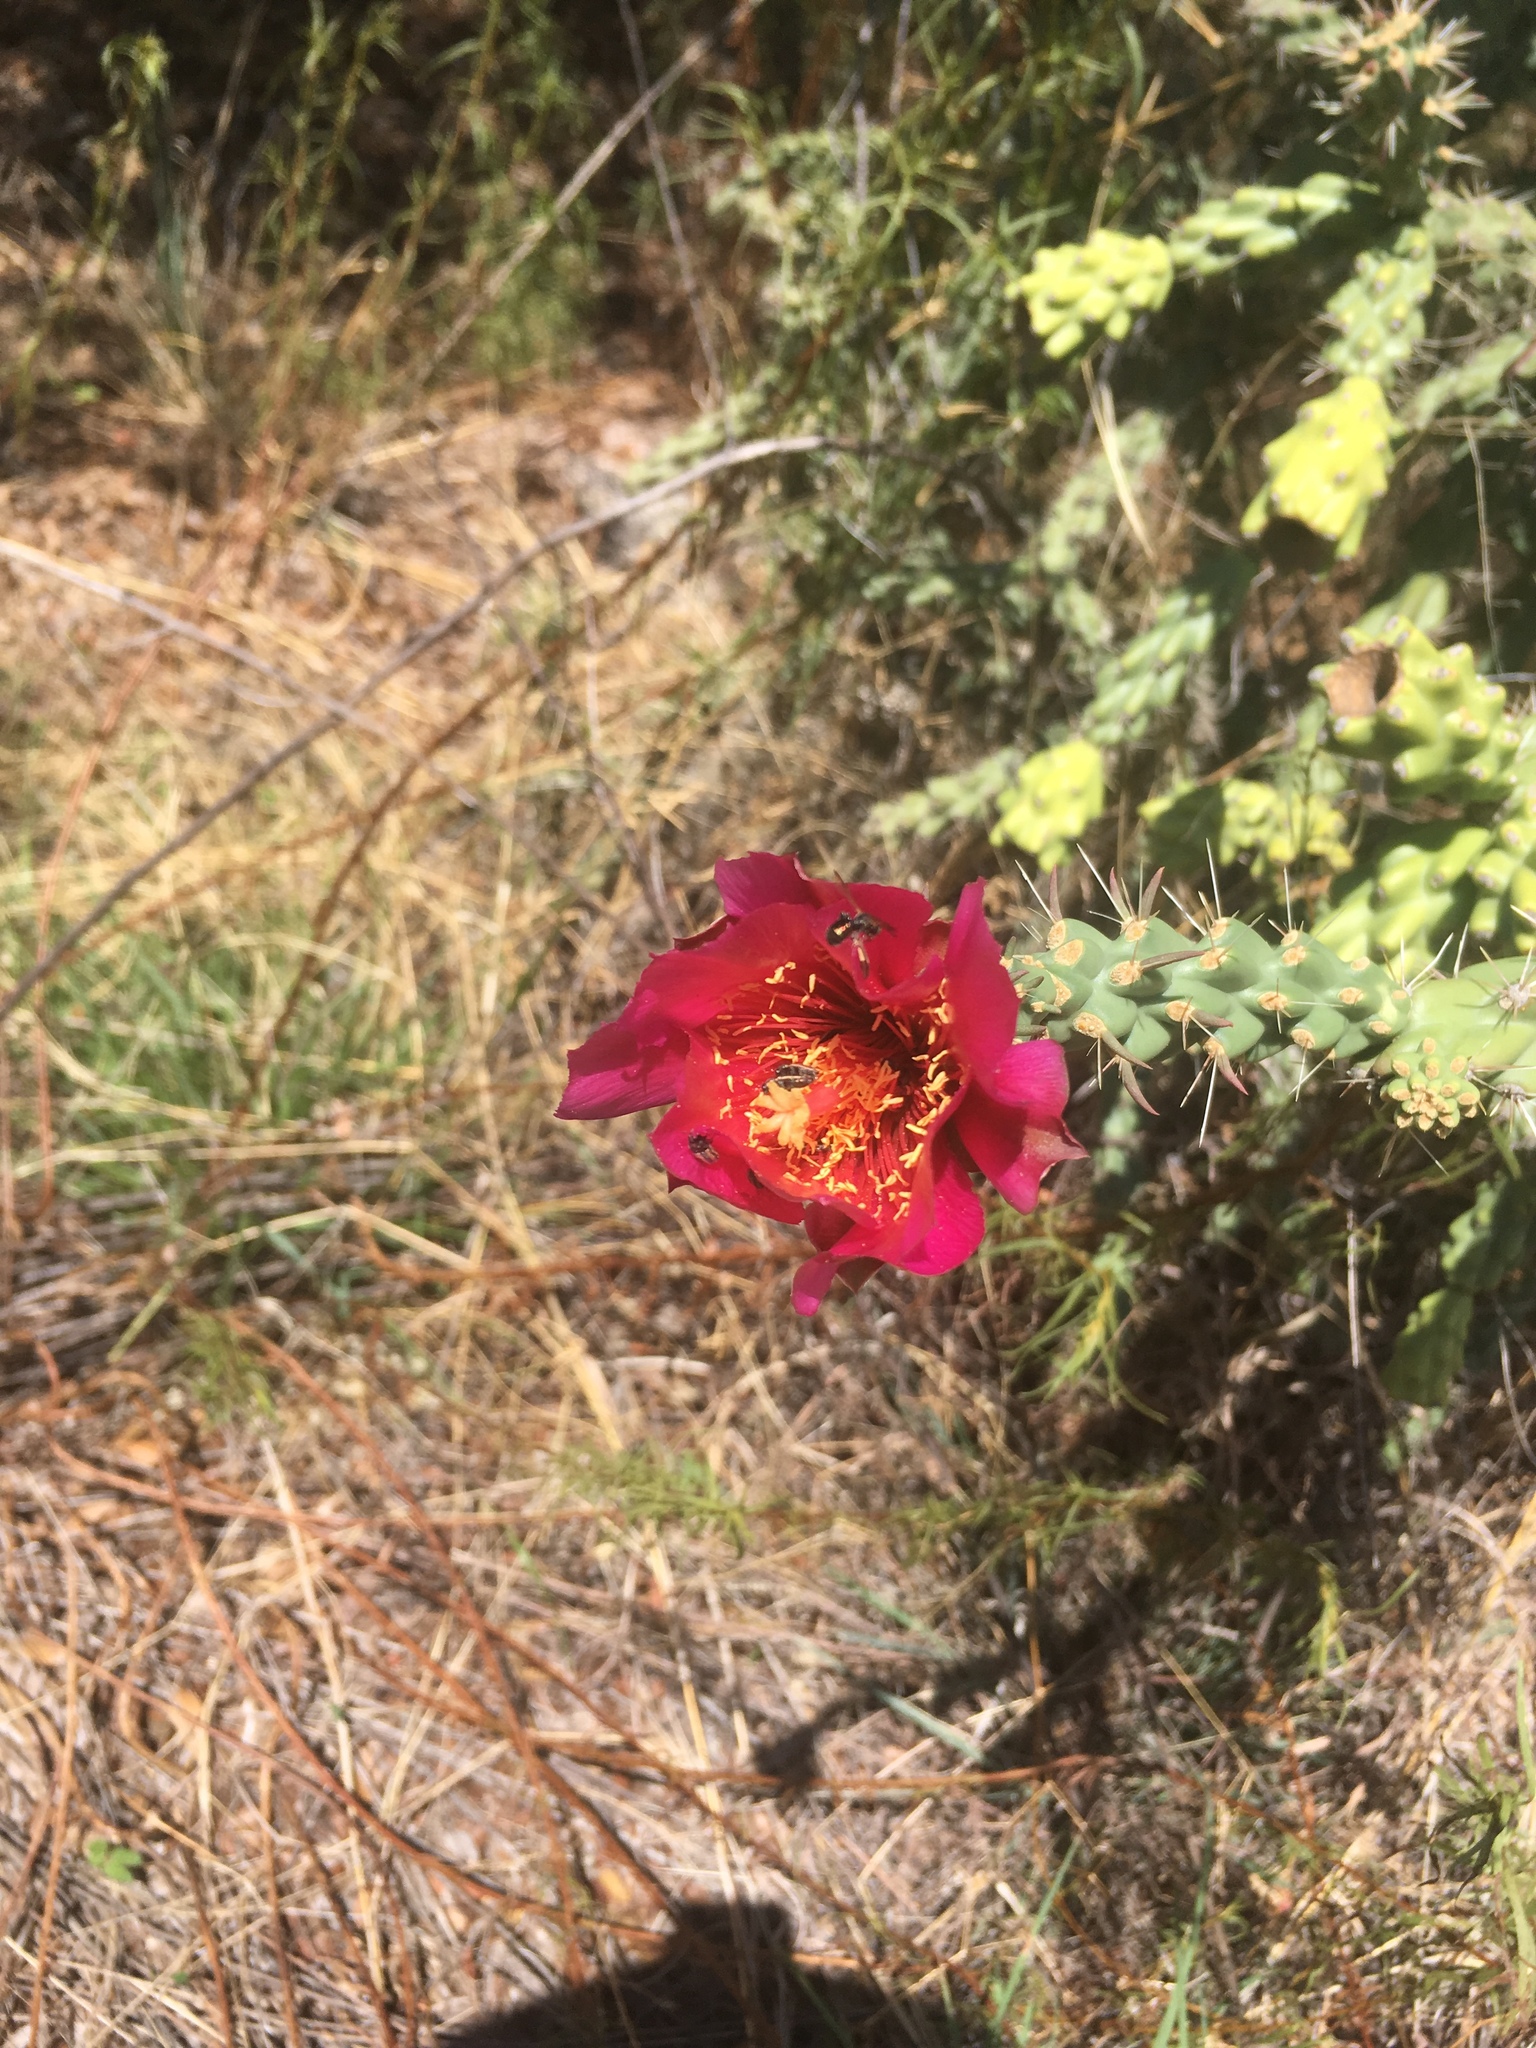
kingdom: Plantae
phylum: Tracheophyta
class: Magnoliopsida
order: Caryophyllales
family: Cactaceae
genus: Cylindropuntia
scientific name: Cylindropuntia imbricata
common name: Candelabrum cactus
